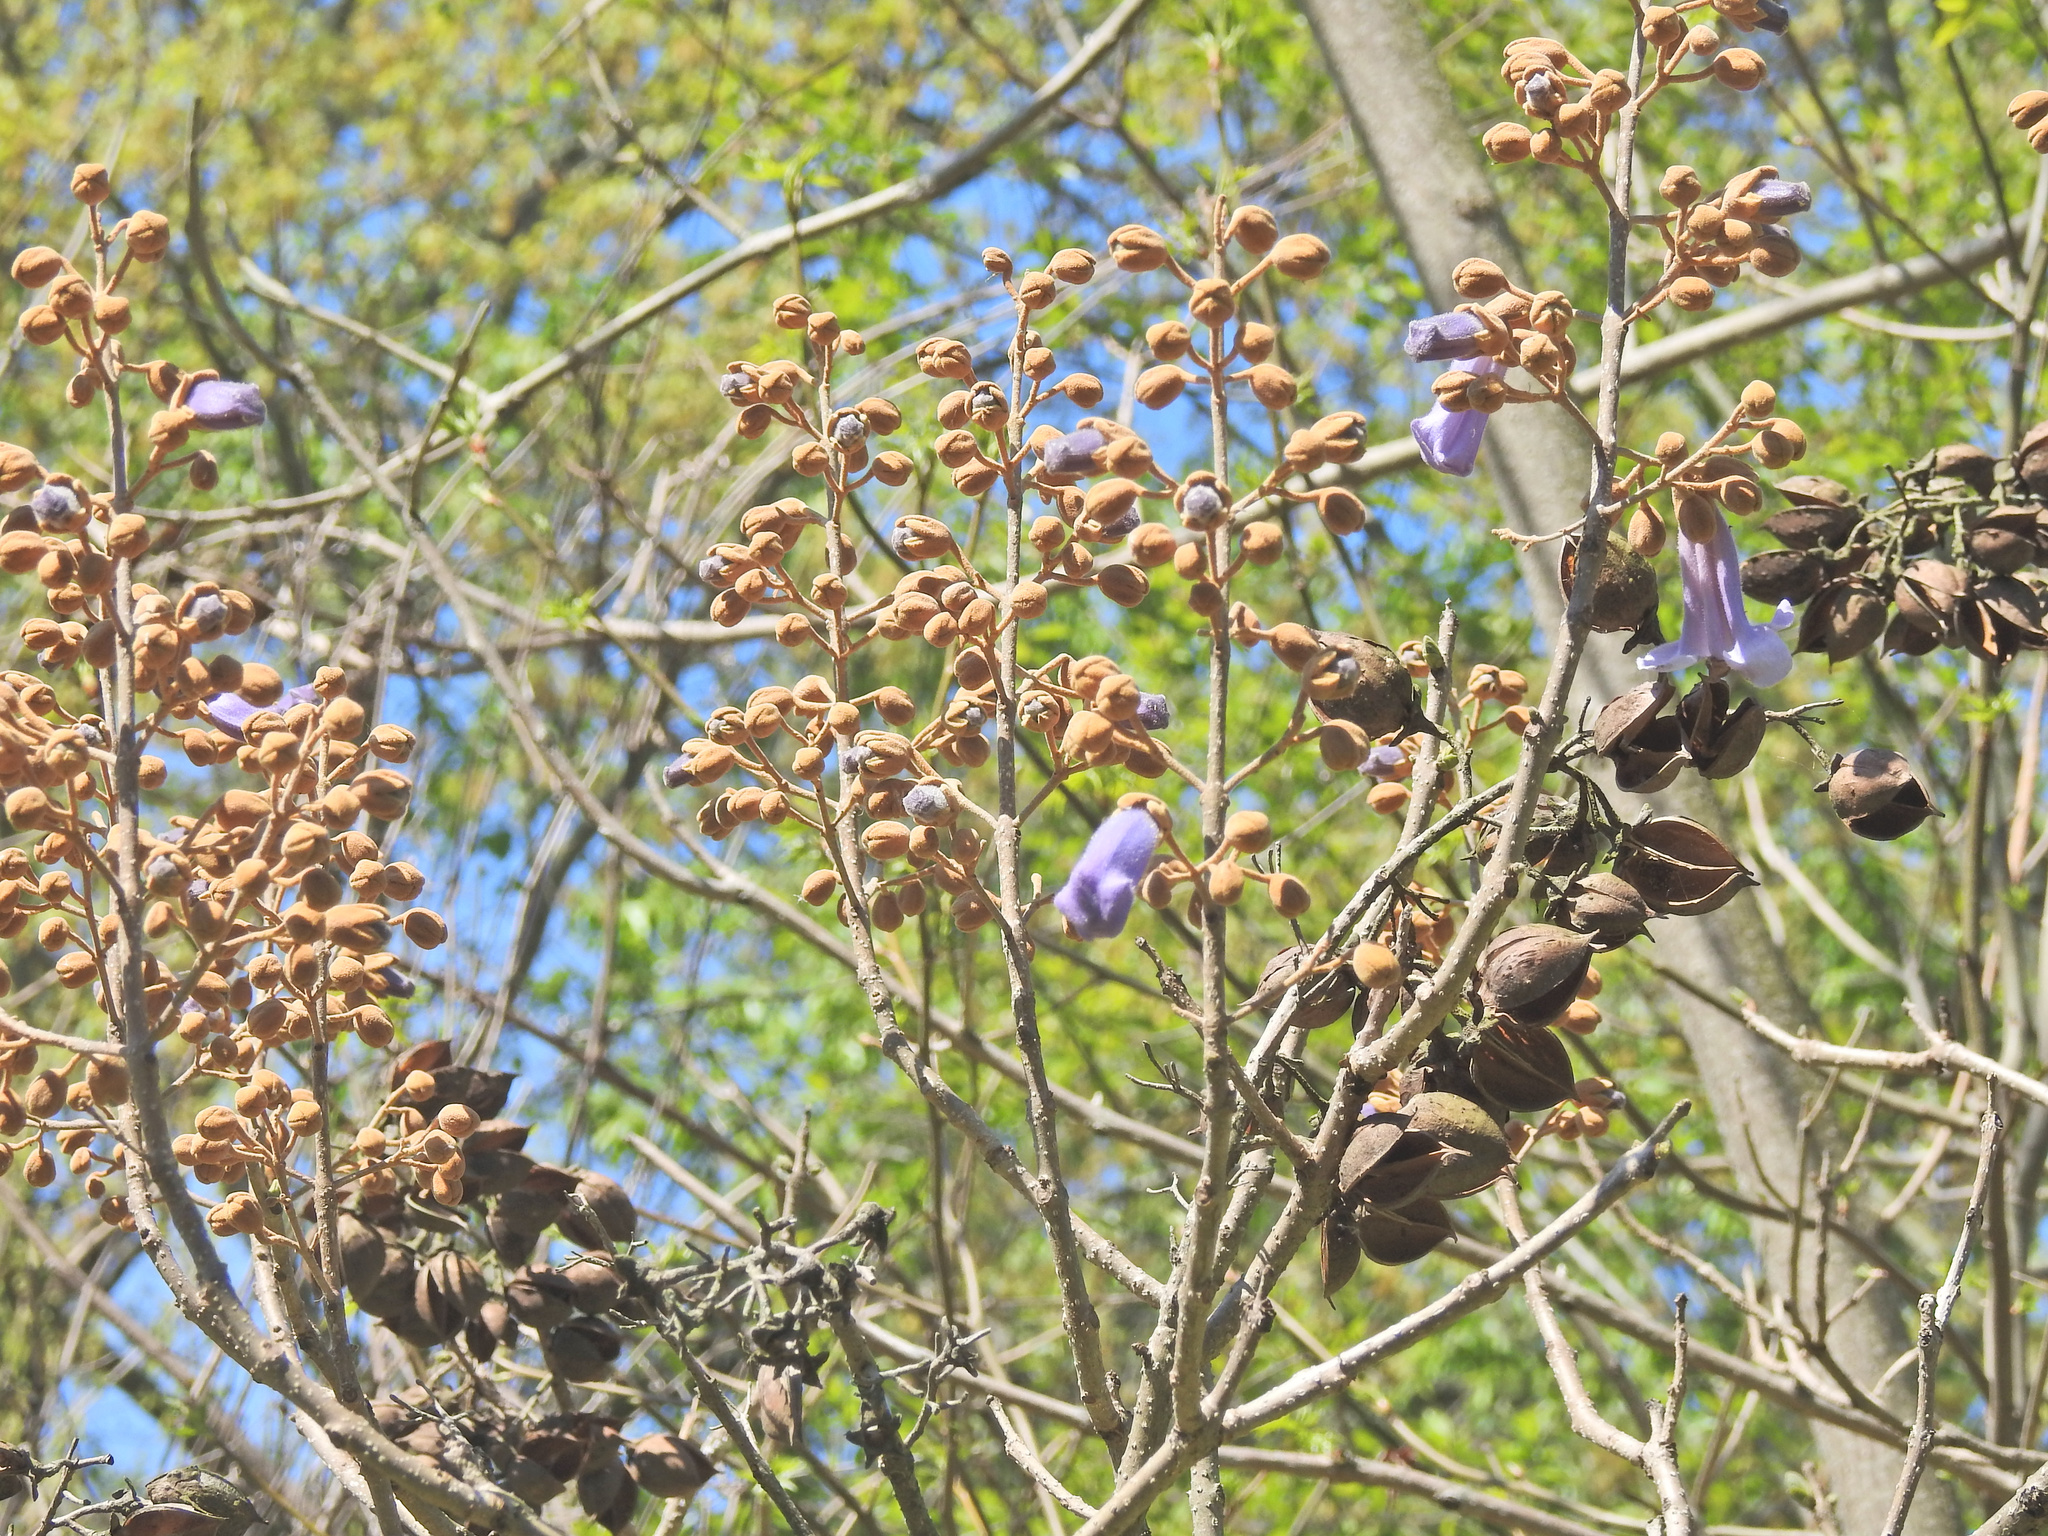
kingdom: Plantae
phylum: Tracheophyta
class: Magnoliopsida
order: Lamiales
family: Paulowniaceae
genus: Paulownia
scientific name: Paulownia tomentosa
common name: Foxglove-tree
